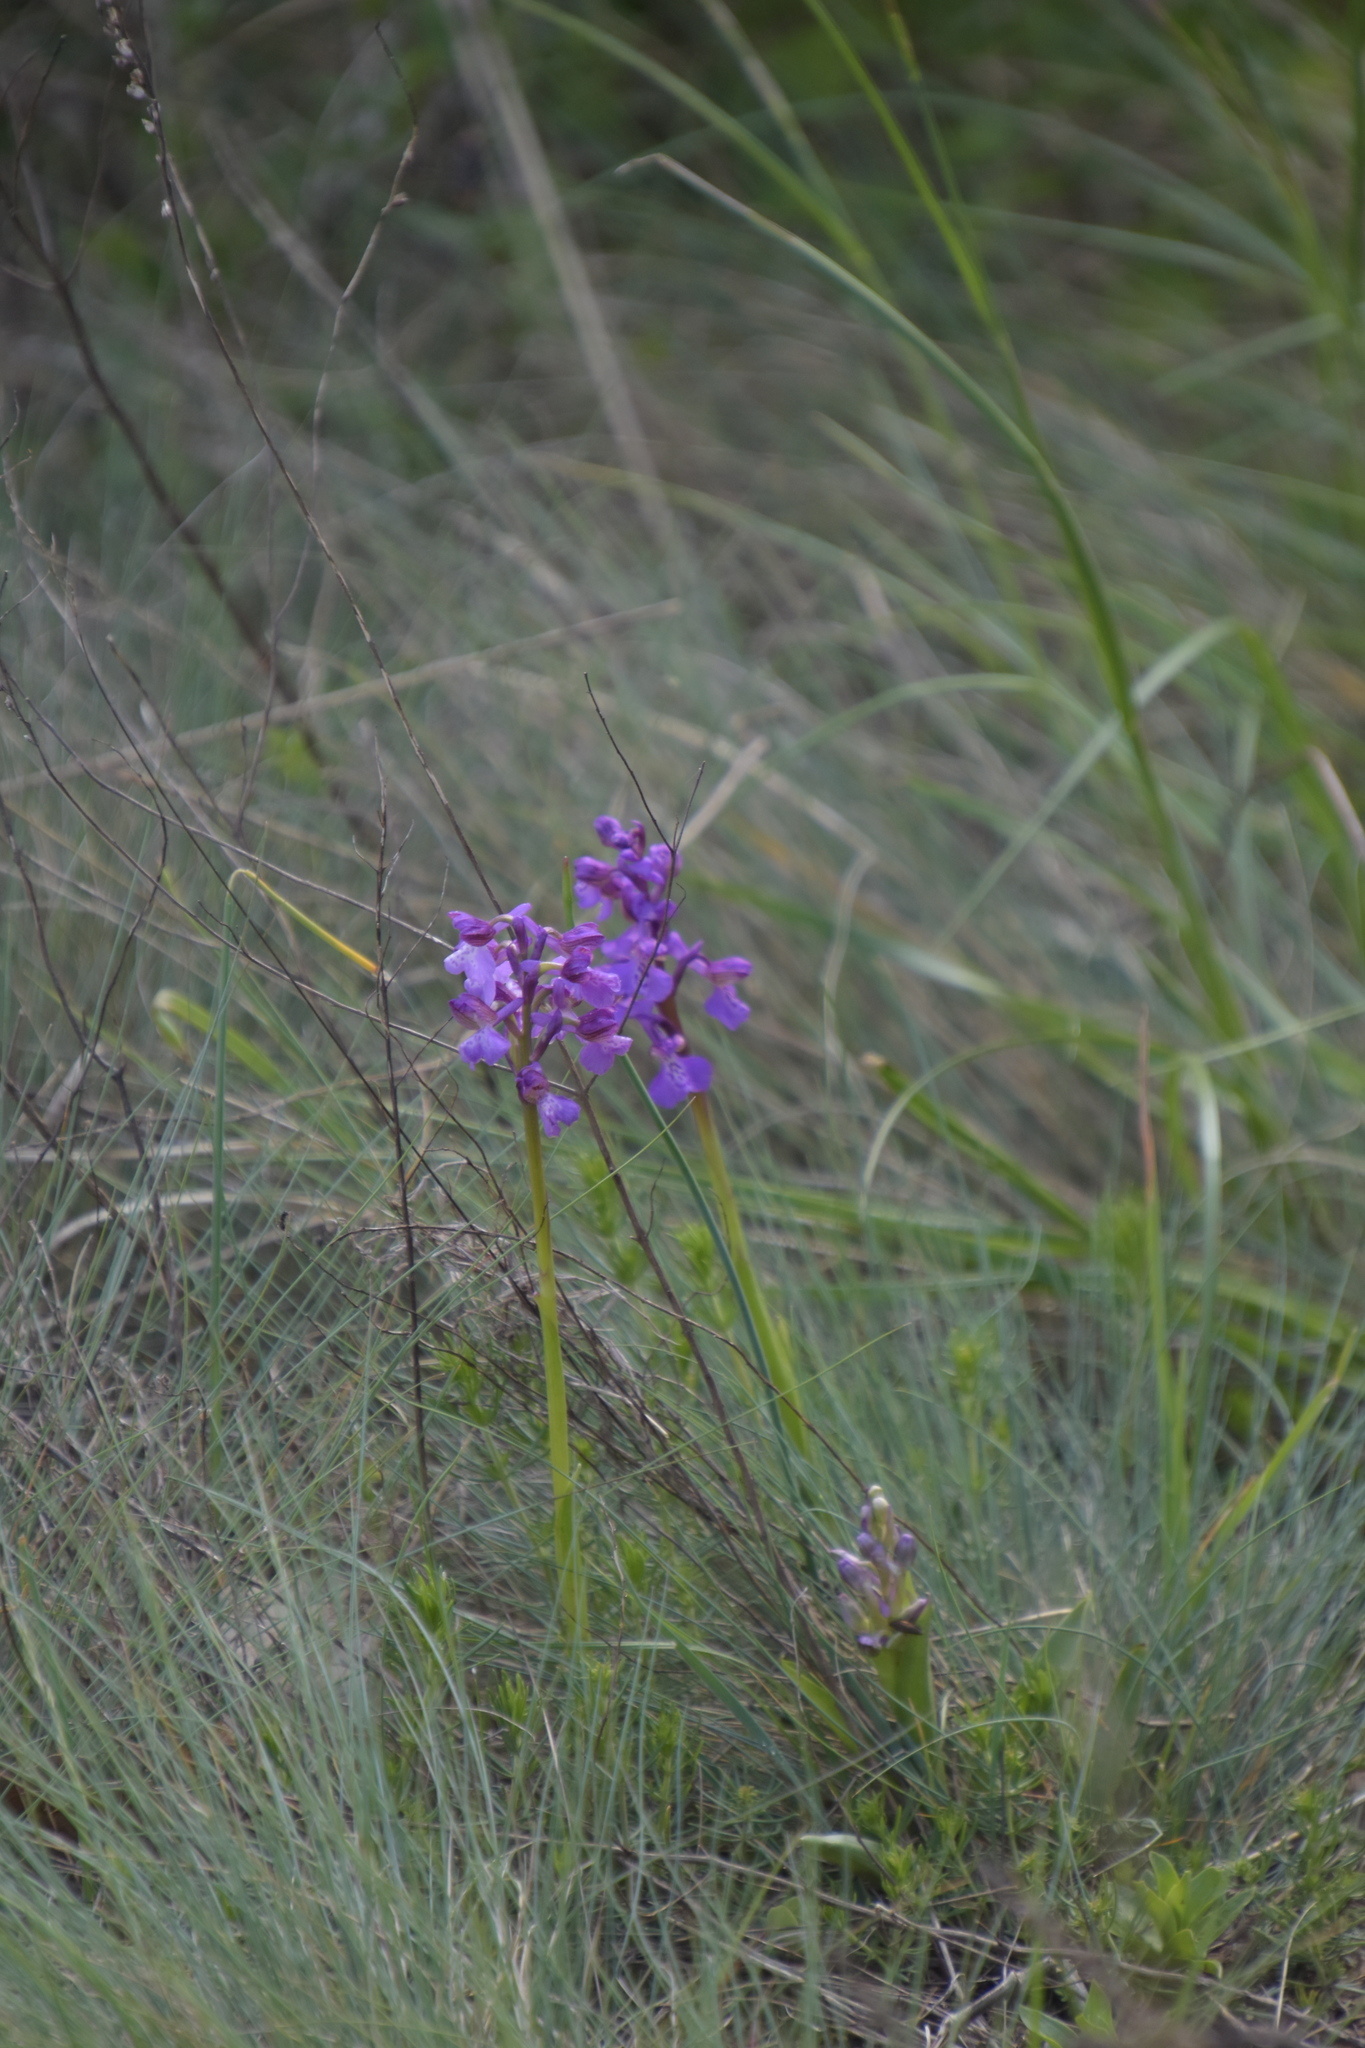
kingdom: Plantae
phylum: Tracheophyta
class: Liliopsida
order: Asparagales
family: Orchidaceae
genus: Anacamptis
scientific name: Anacamptis morio
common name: Green-winged orchid
